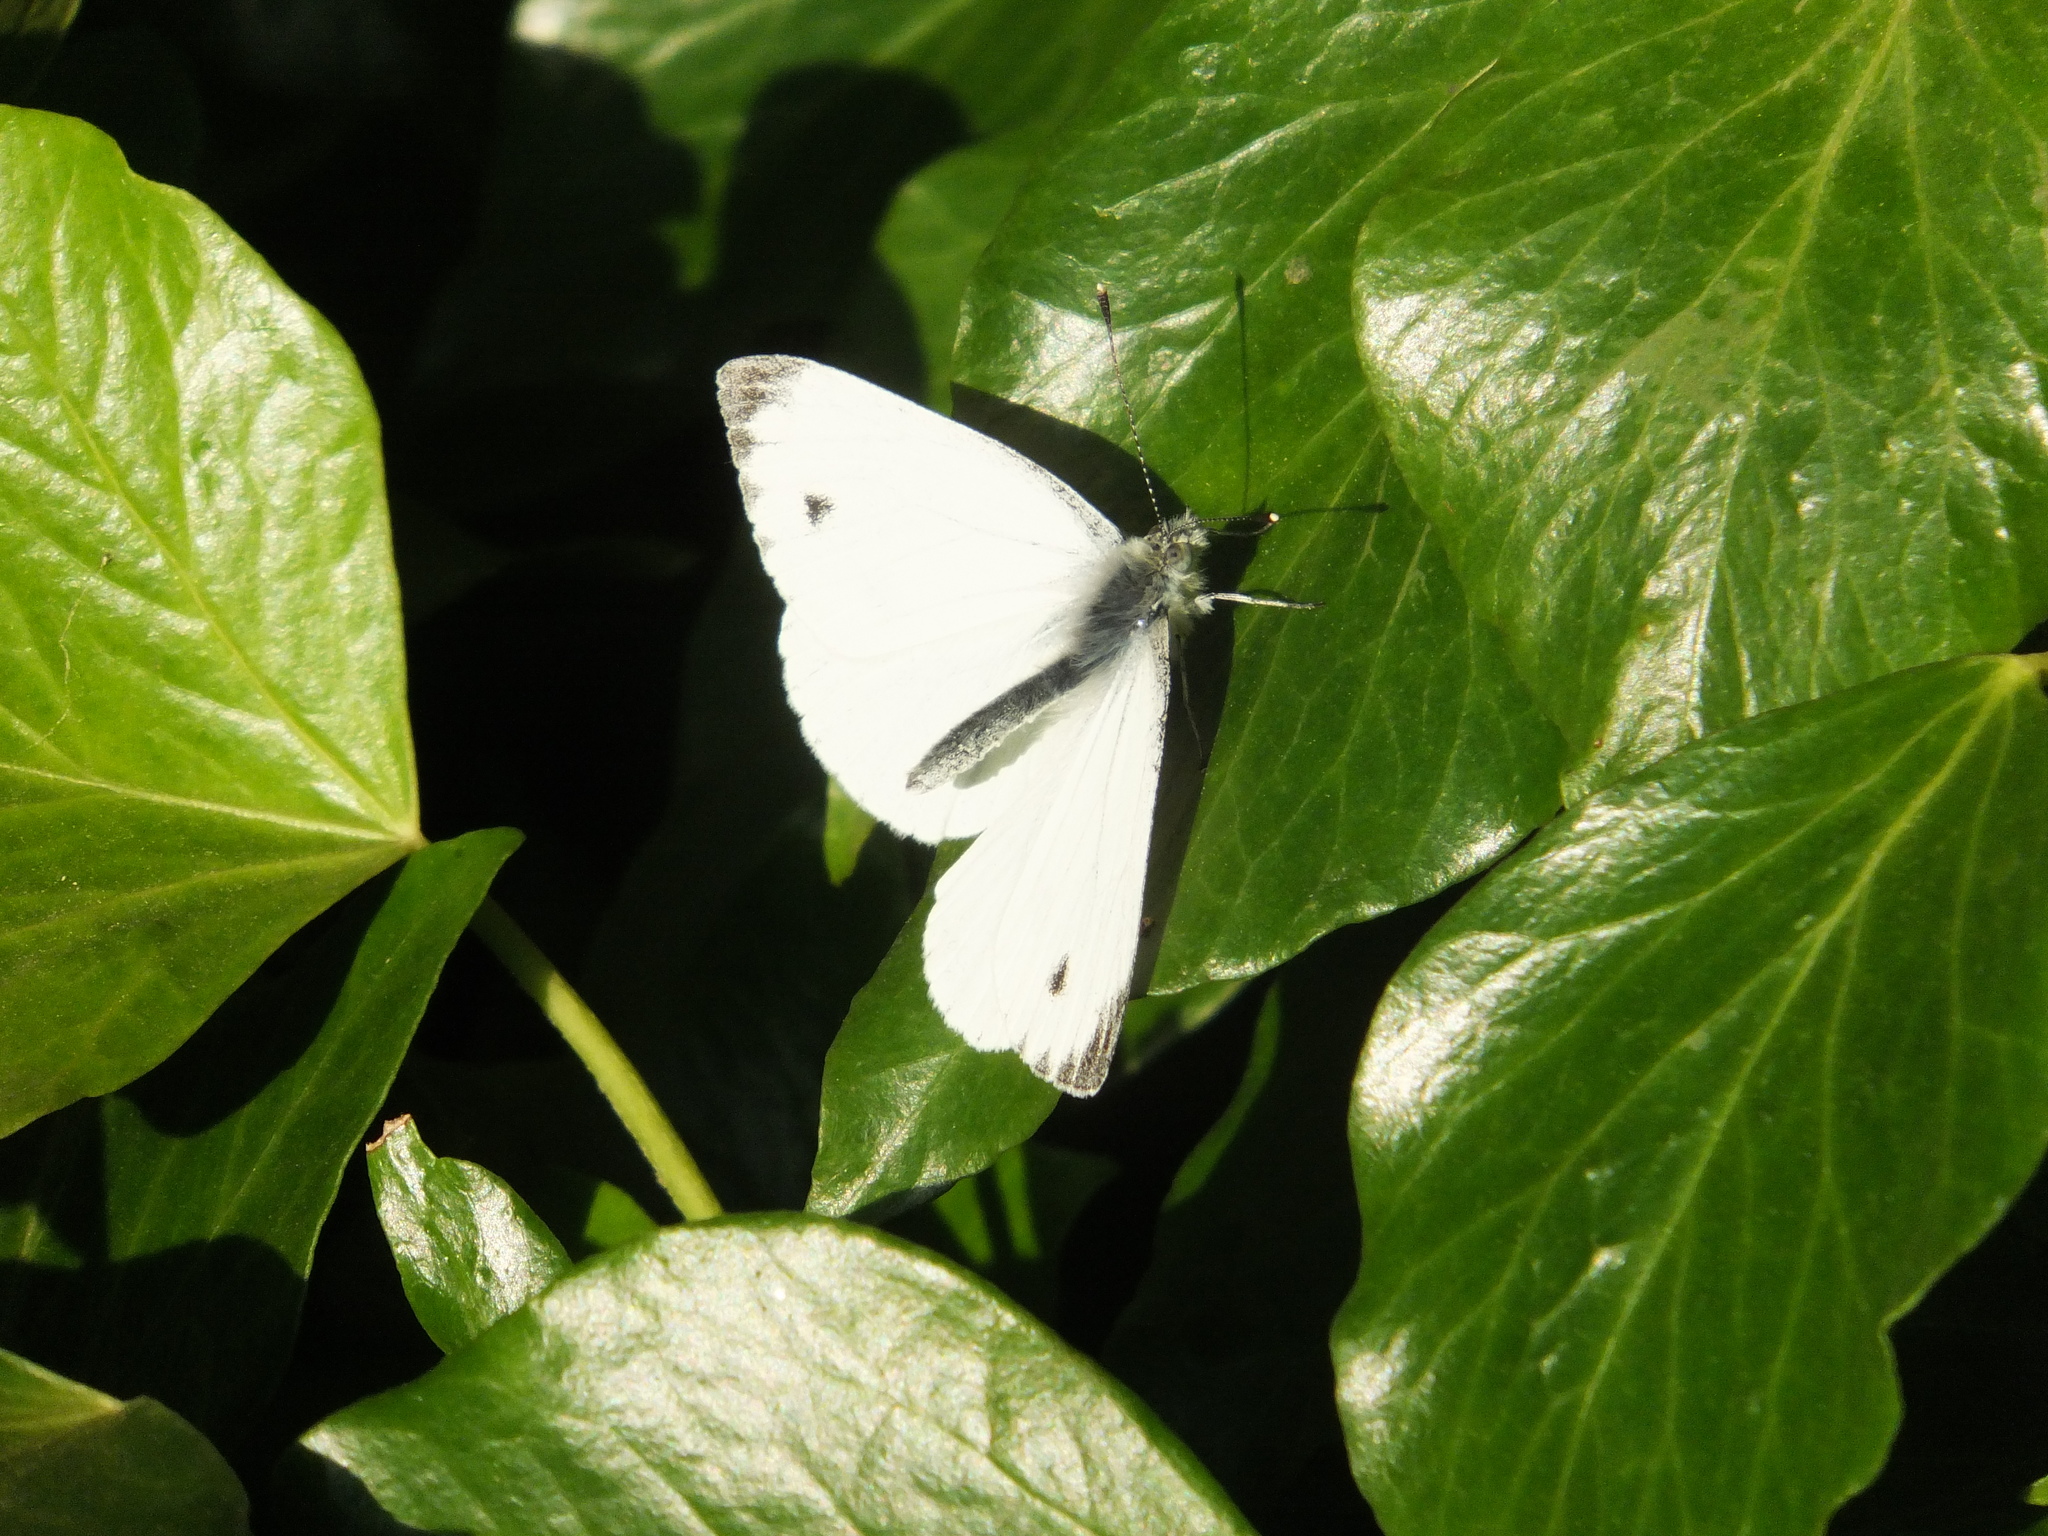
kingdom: Animalia
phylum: Arthropoda
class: Insecta
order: Lepidoptera
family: Pieridae
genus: Pieris
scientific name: Pieris napi
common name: Green-veined white
